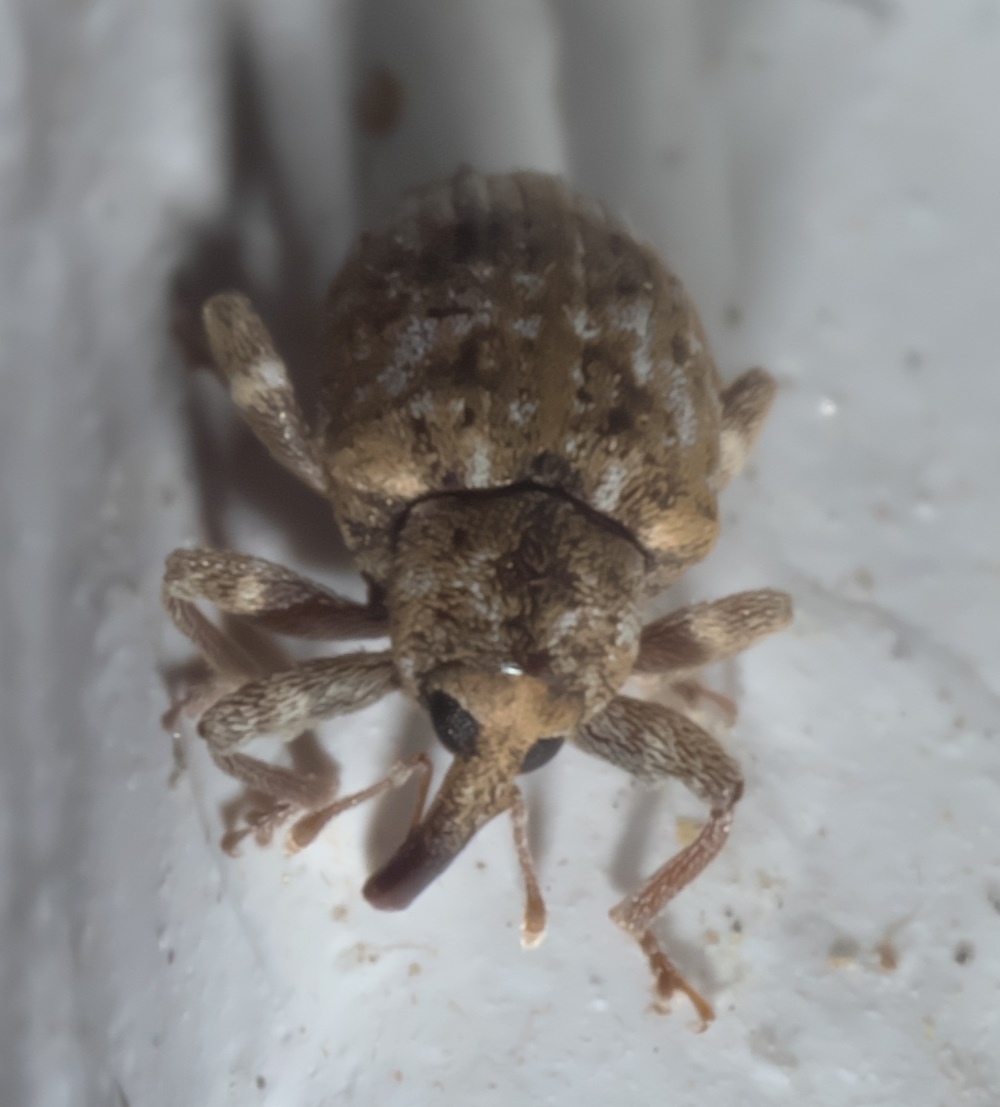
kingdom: Animalia
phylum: Arthropoda
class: Insecta
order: Coleoptera
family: Curculionidae
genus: Conotrachelus
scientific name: Conotrachelus recessus
